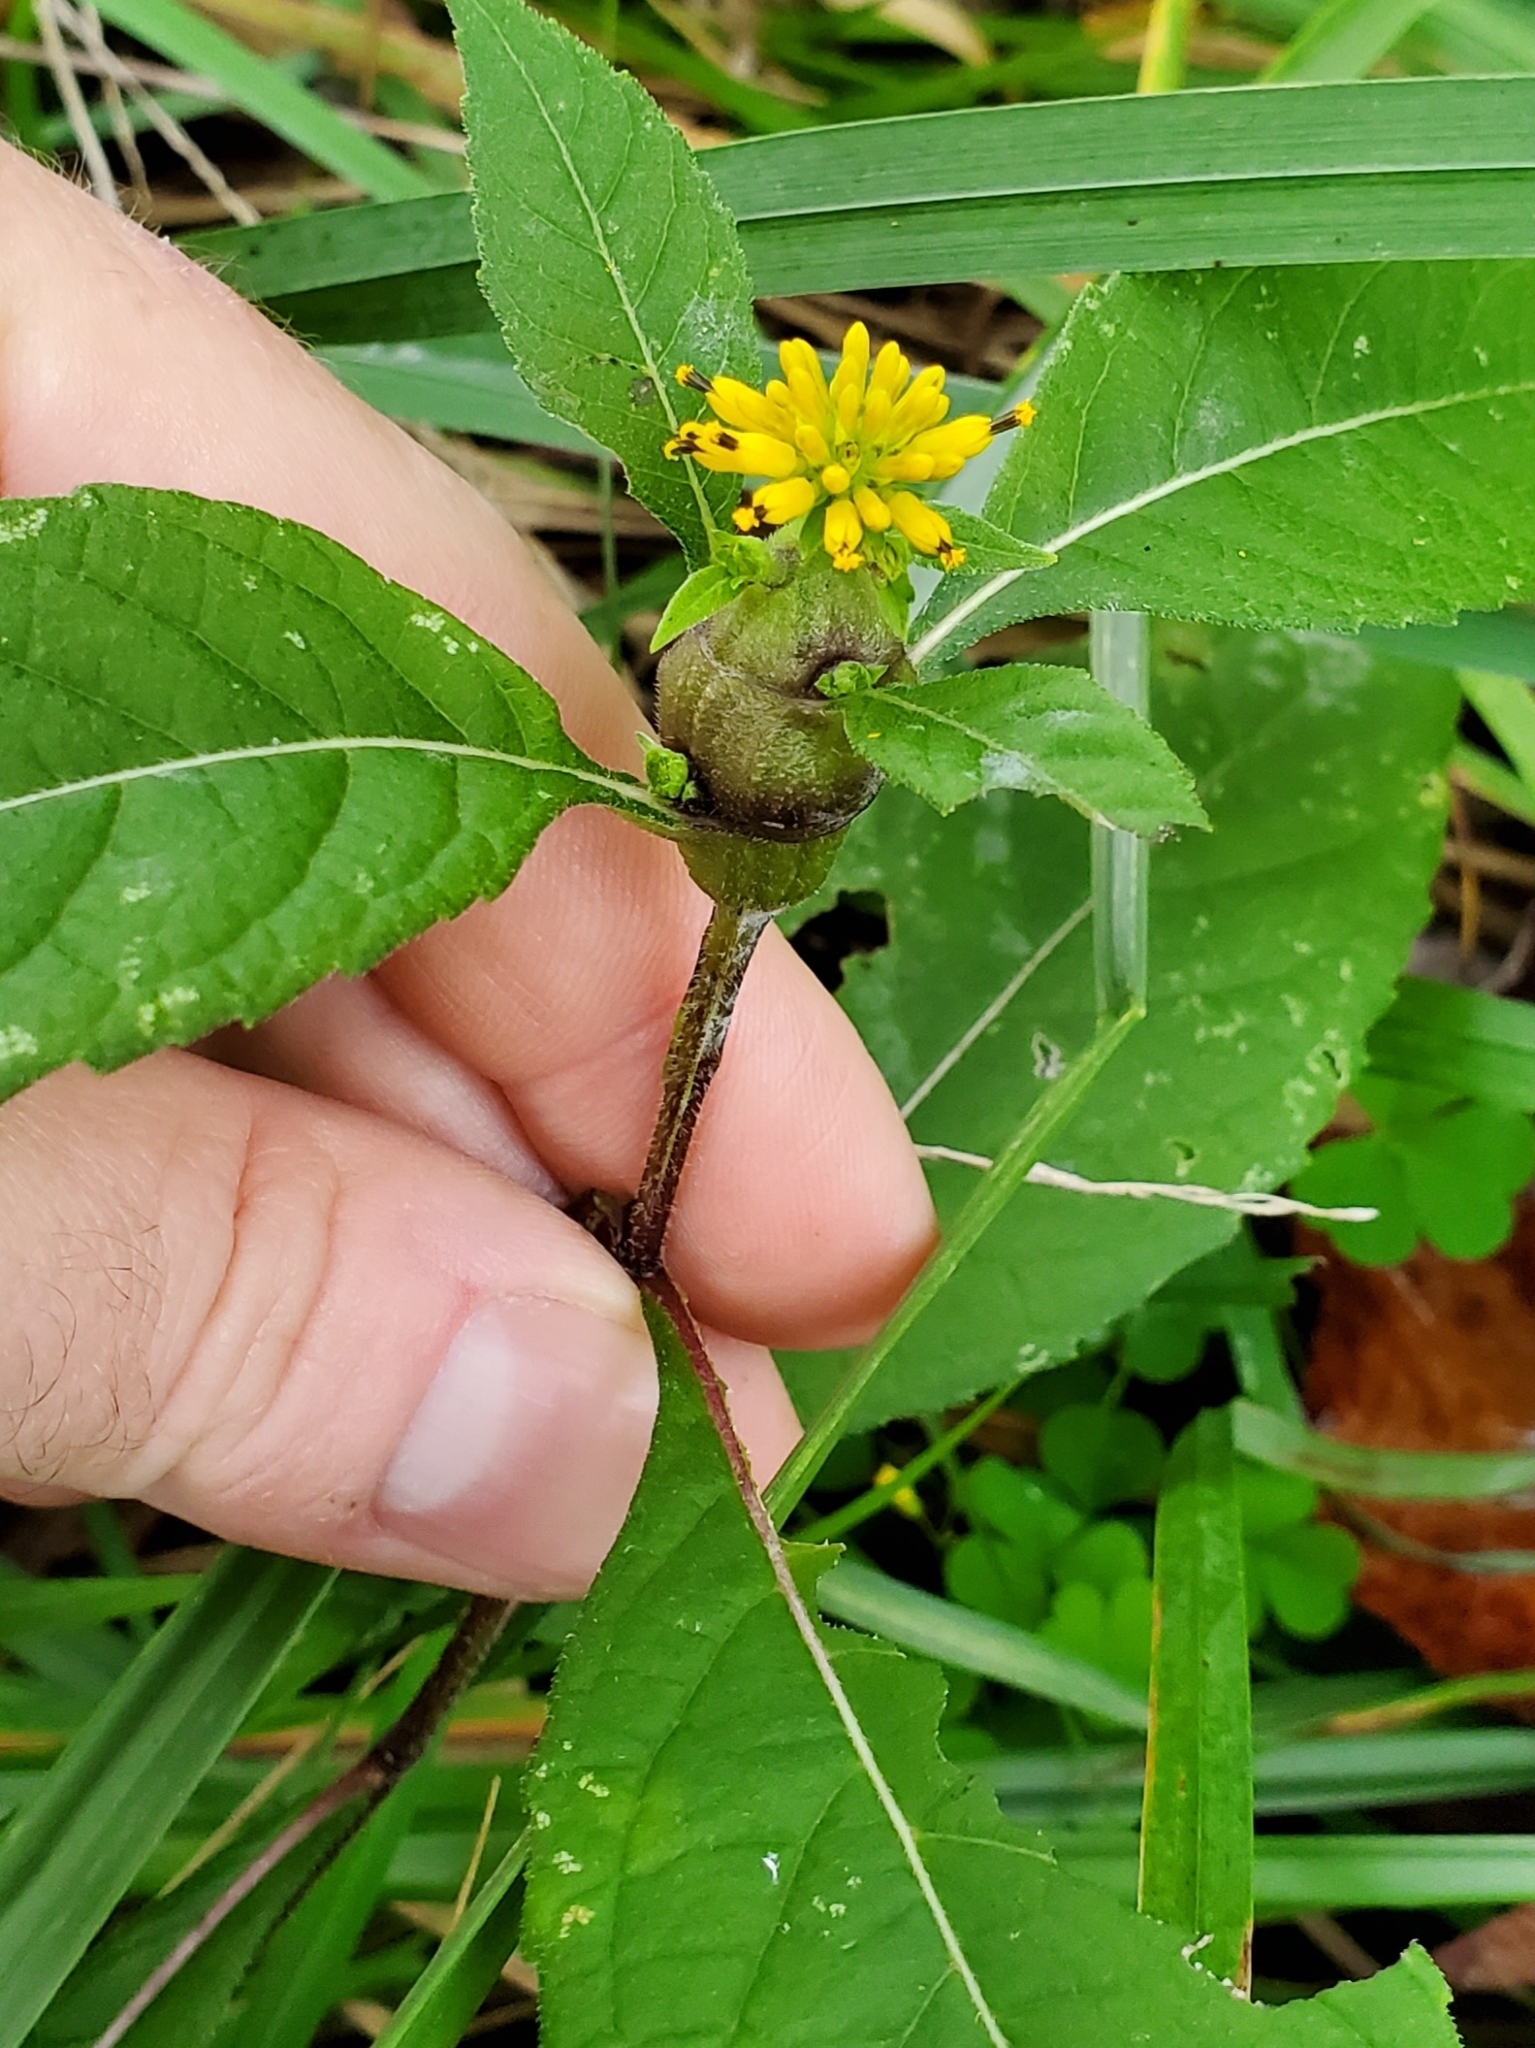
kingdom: Animalia
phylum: Arthropoda
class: Insecta
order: Diptera
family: Cecidomyiidae
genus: Neolasioptera
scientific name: Neolasioptera verbesinae
